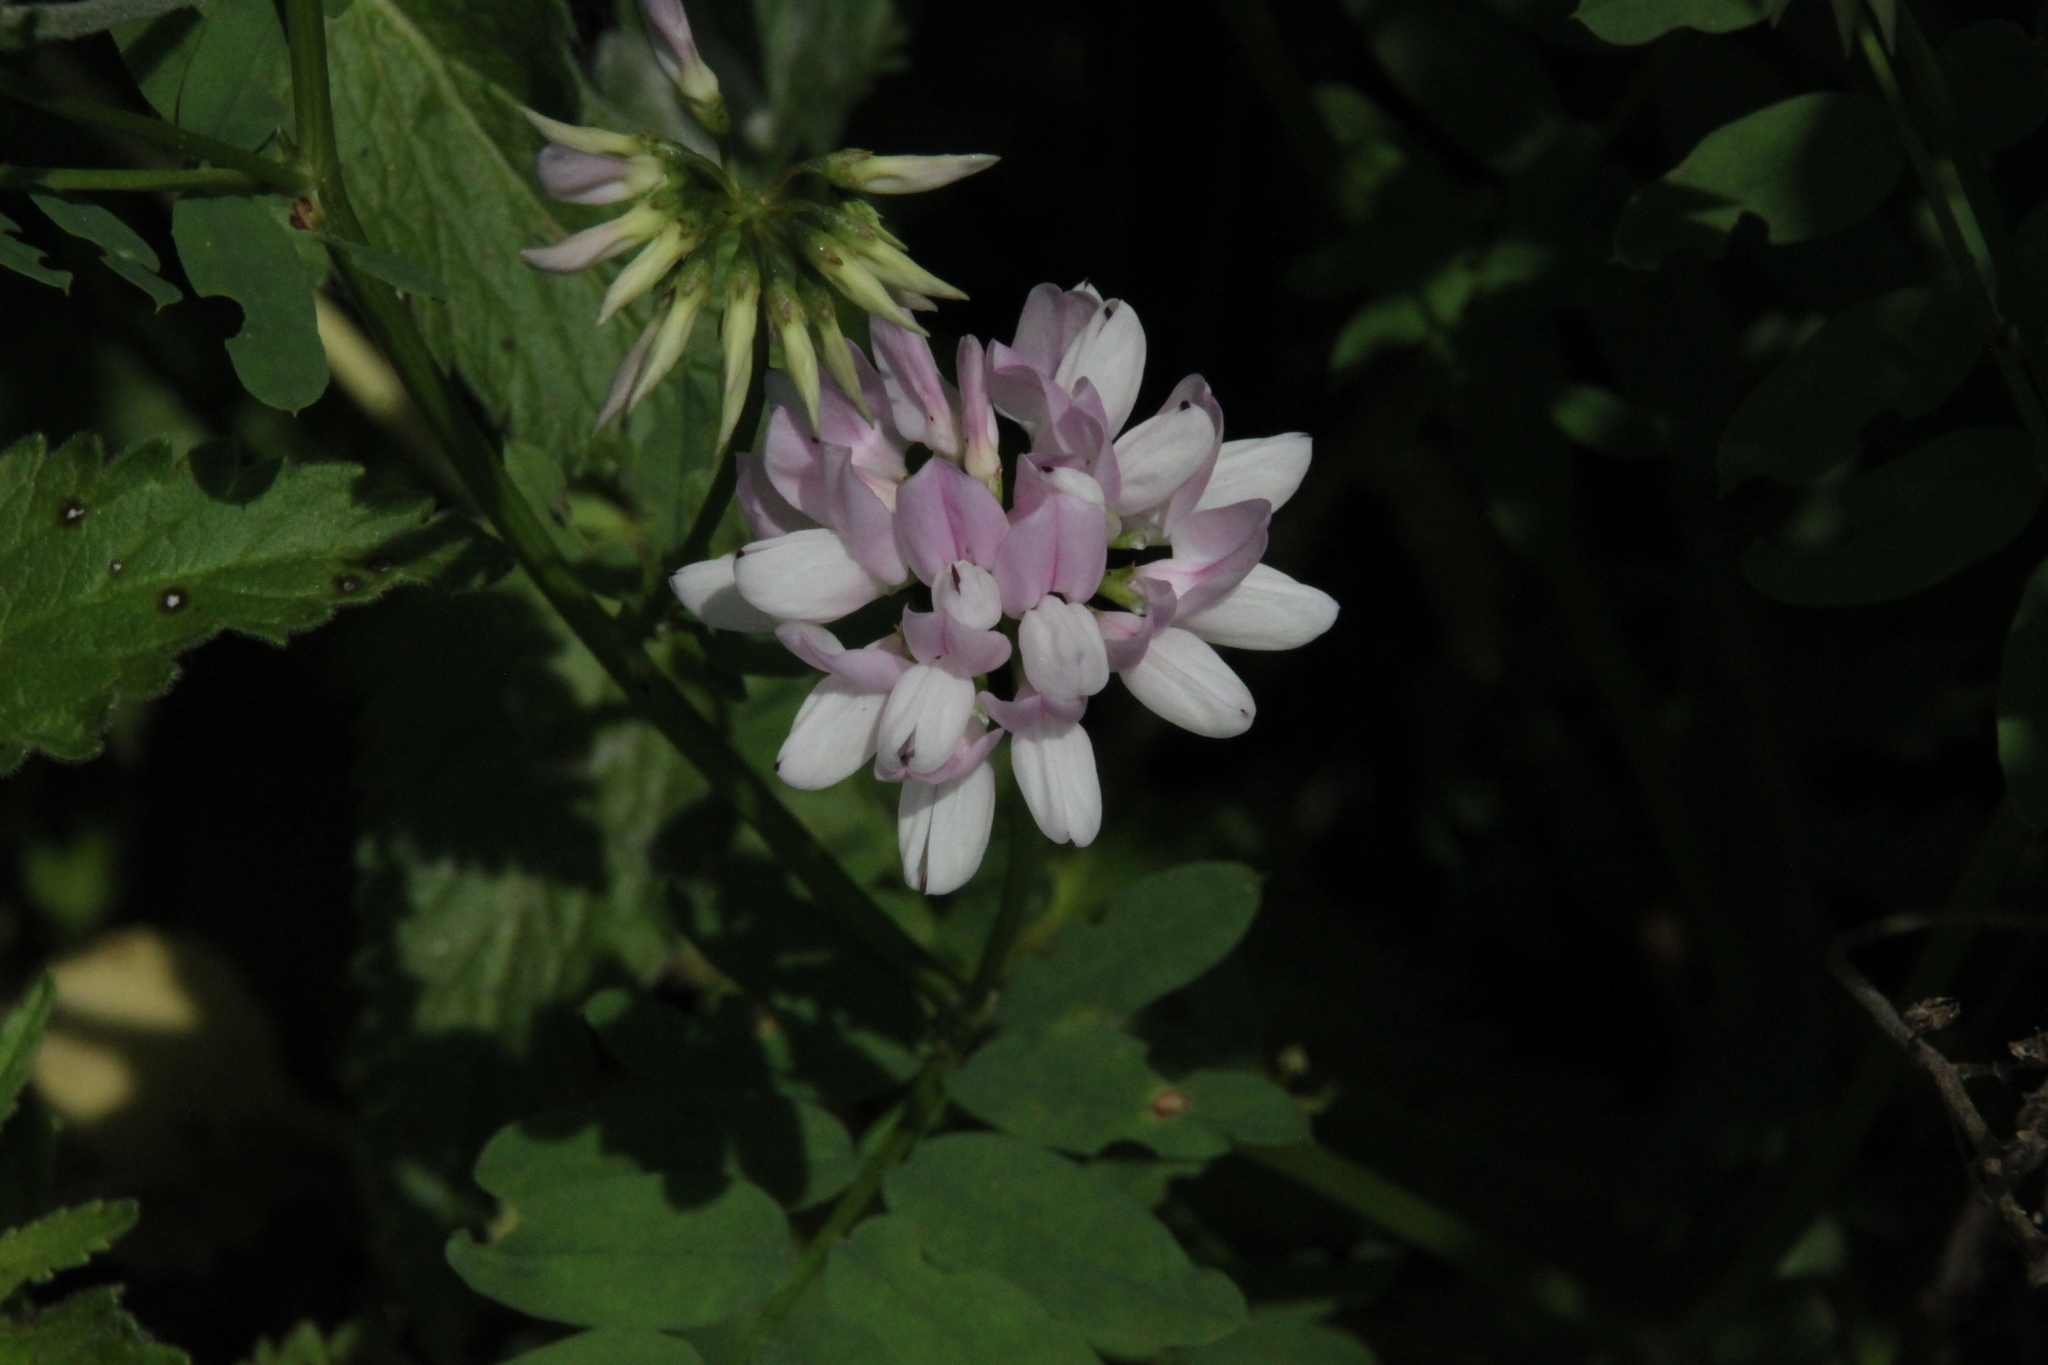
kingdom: Plantae
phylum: Tracheophyta
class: Magnoliopsida
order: Fabales
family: Fabaceae
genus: Coronilla
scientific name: Coronilla varia
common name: Crownvetch
